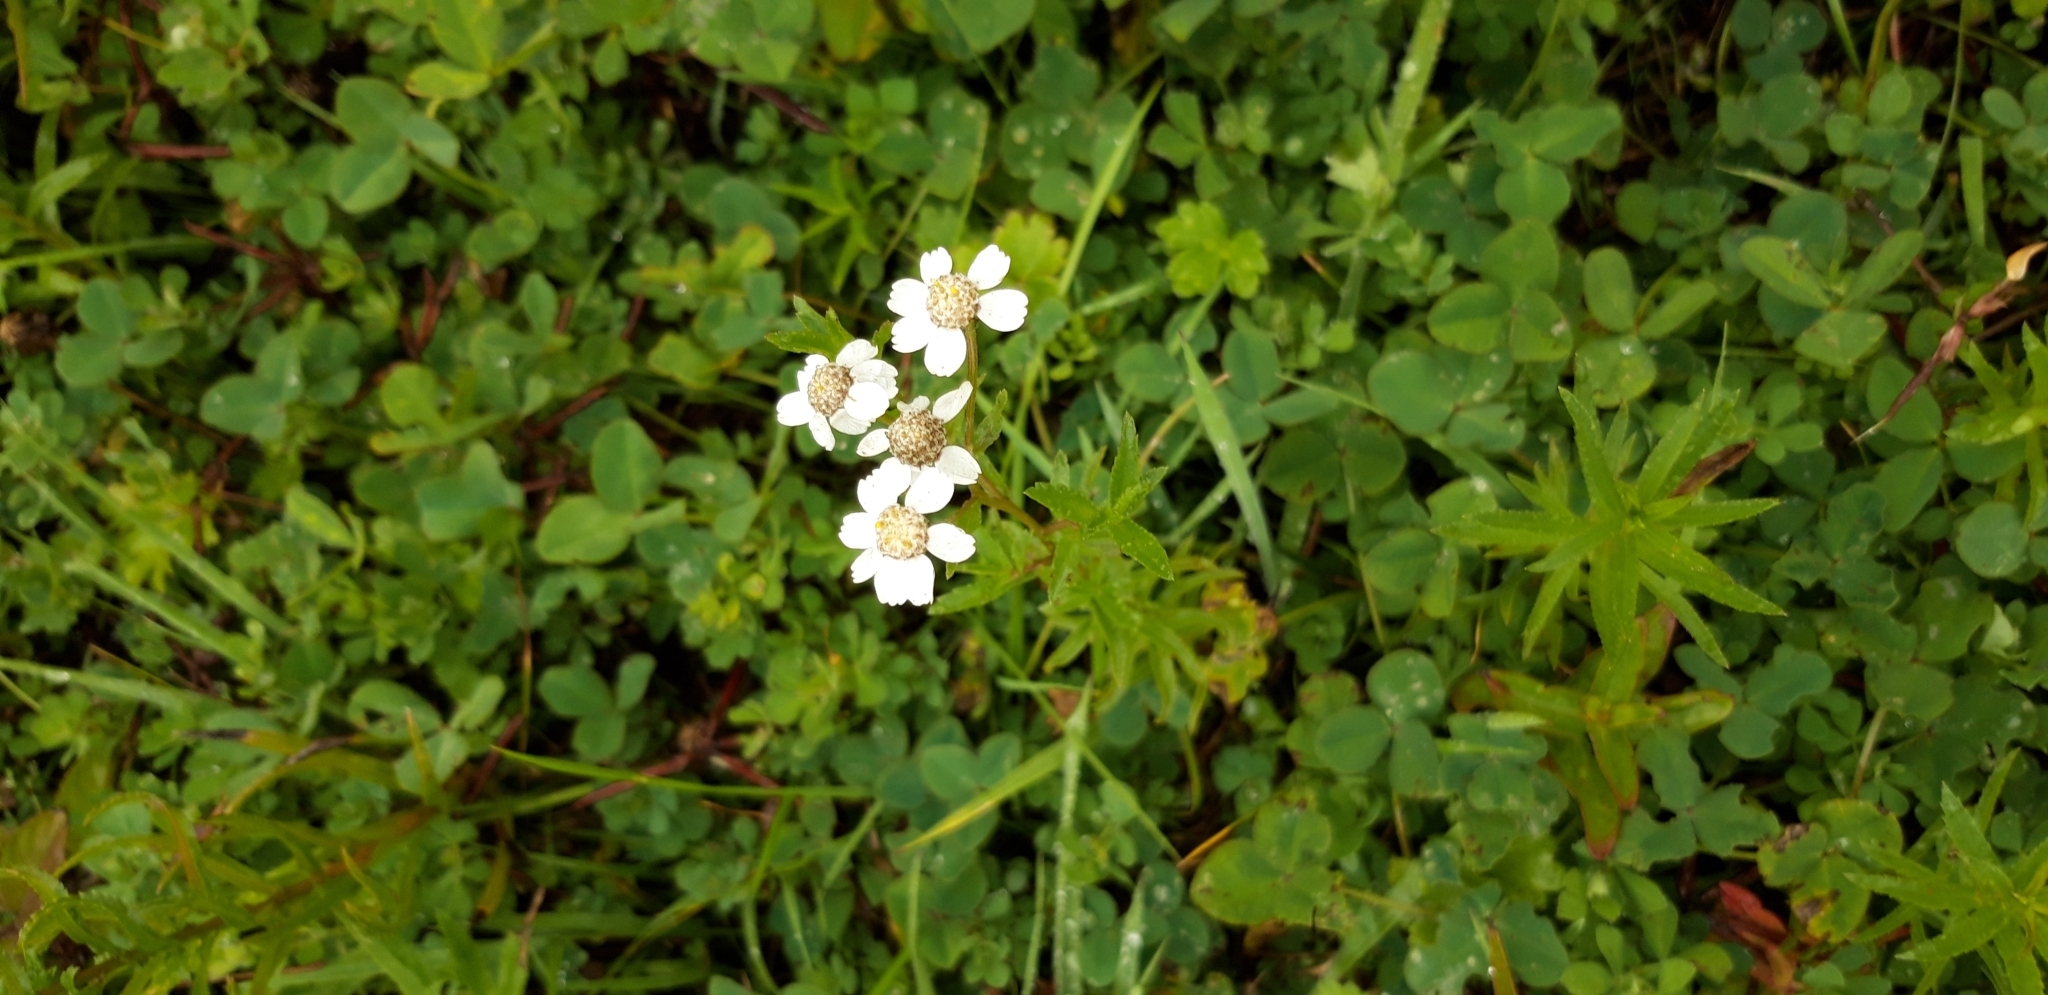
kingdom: Plantae
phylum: Tracheophyta
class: Magnoliopsida
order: Asterales
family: Asteraceae
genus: Achillea
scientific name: Achillea ptarmica
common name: Sneezeweed
